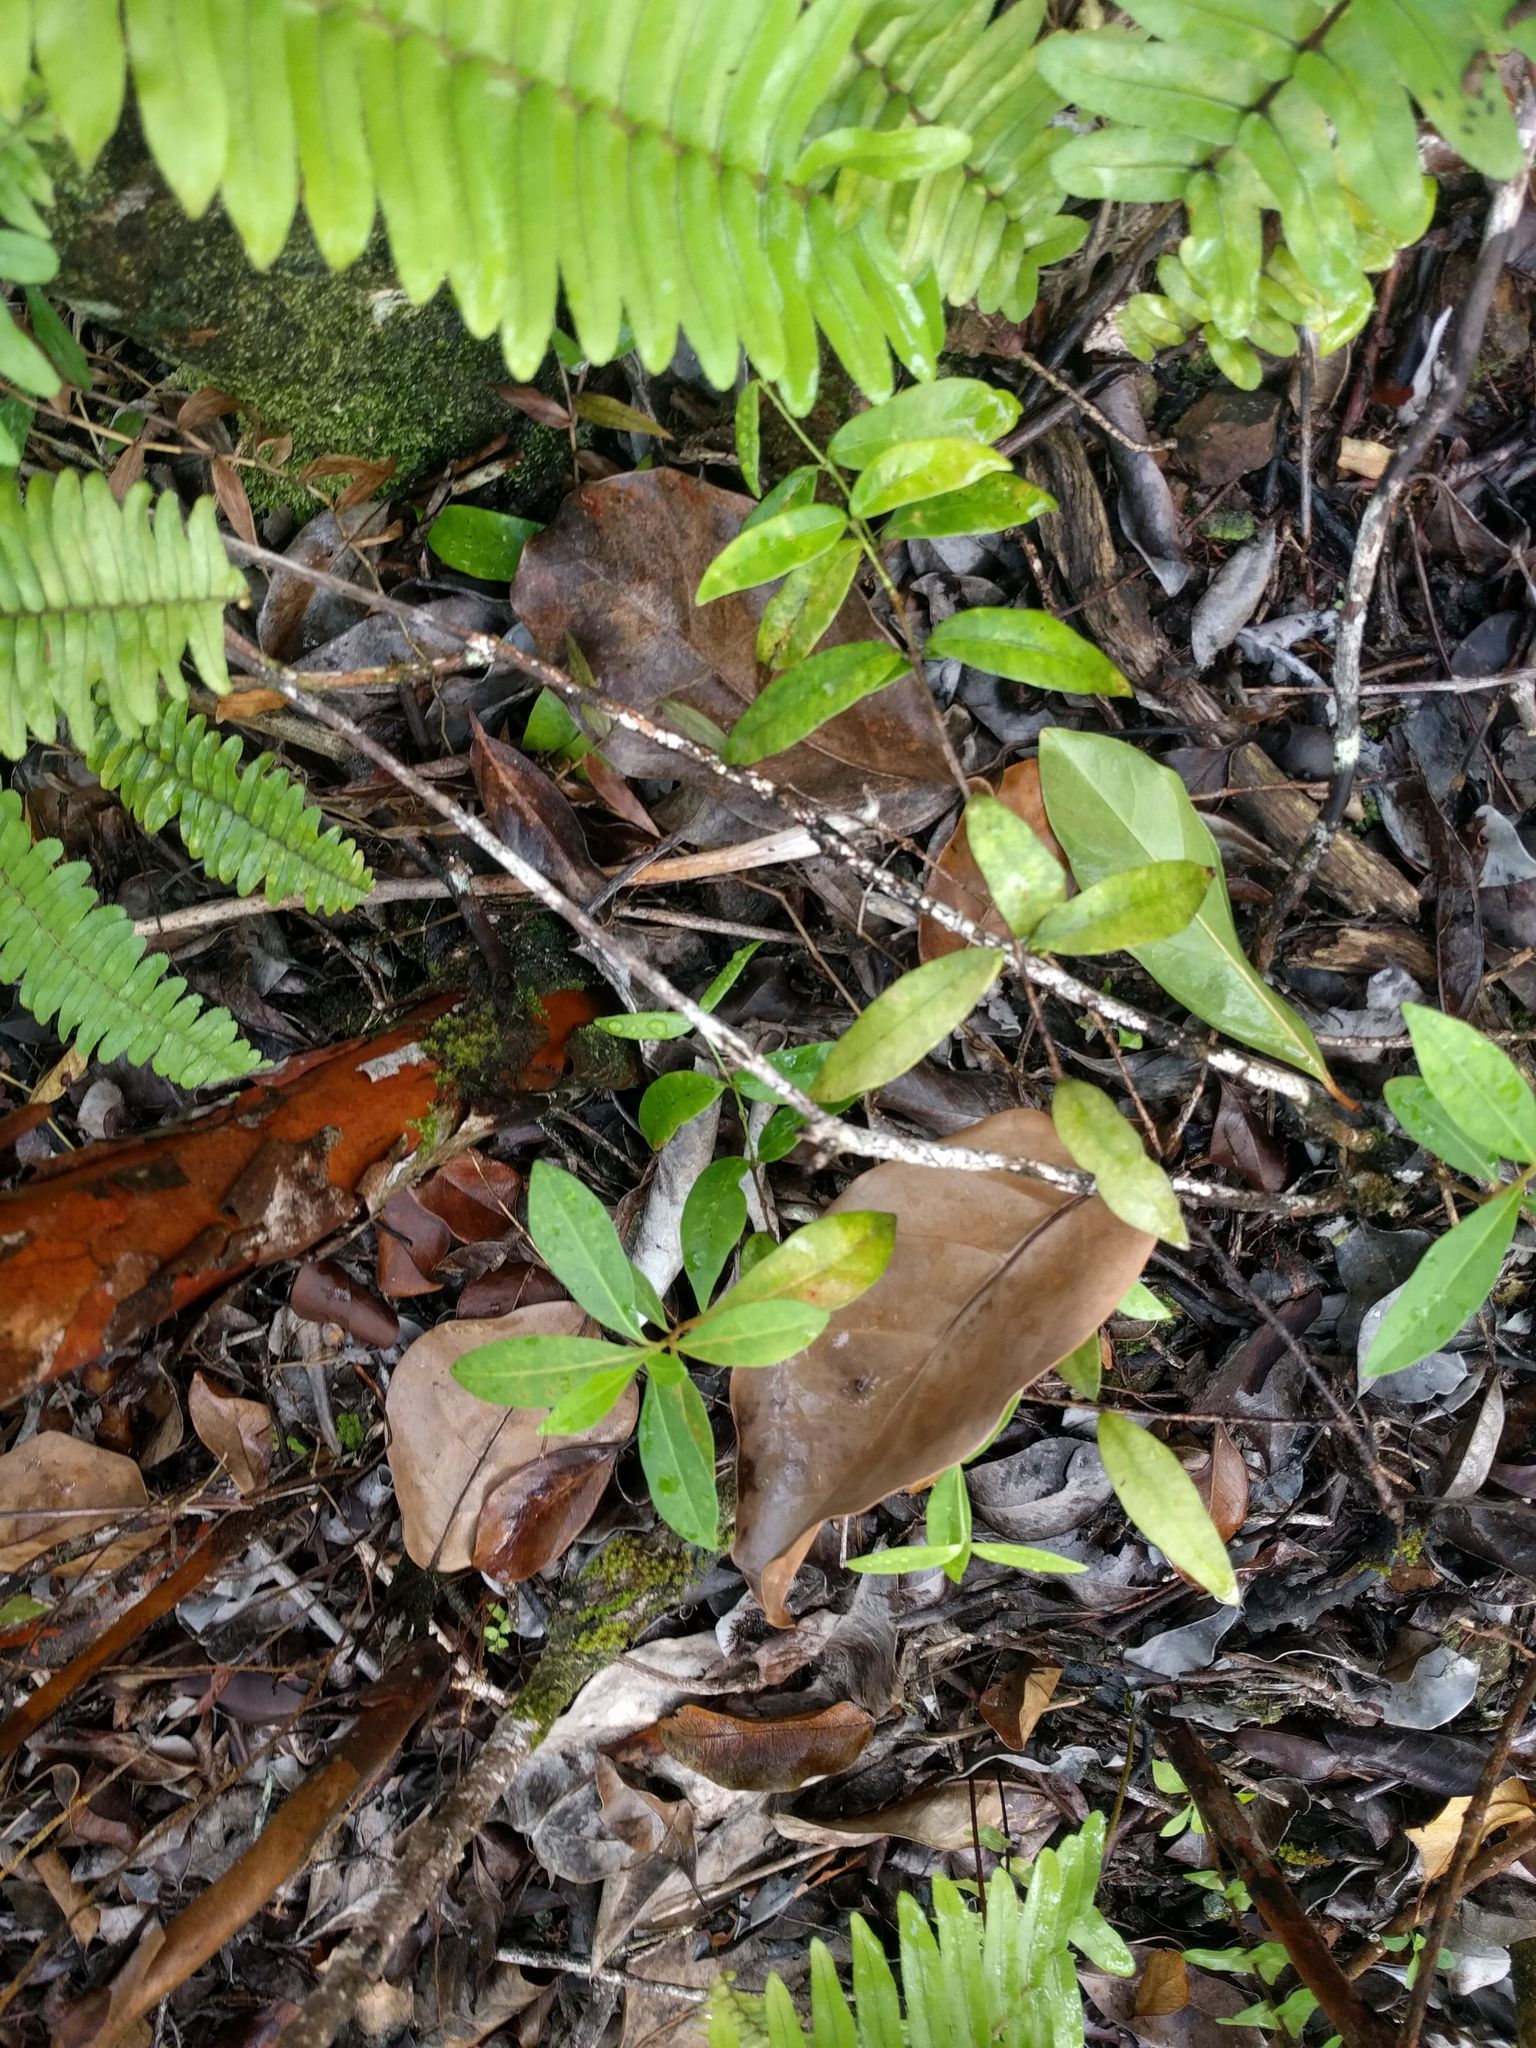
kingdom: Plantae
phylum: Tracheophyta
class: Magnoliopsida
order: Gentianales
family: Apocynaceae
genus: Alyxia
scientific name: Alyxia stellata
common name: Maile
